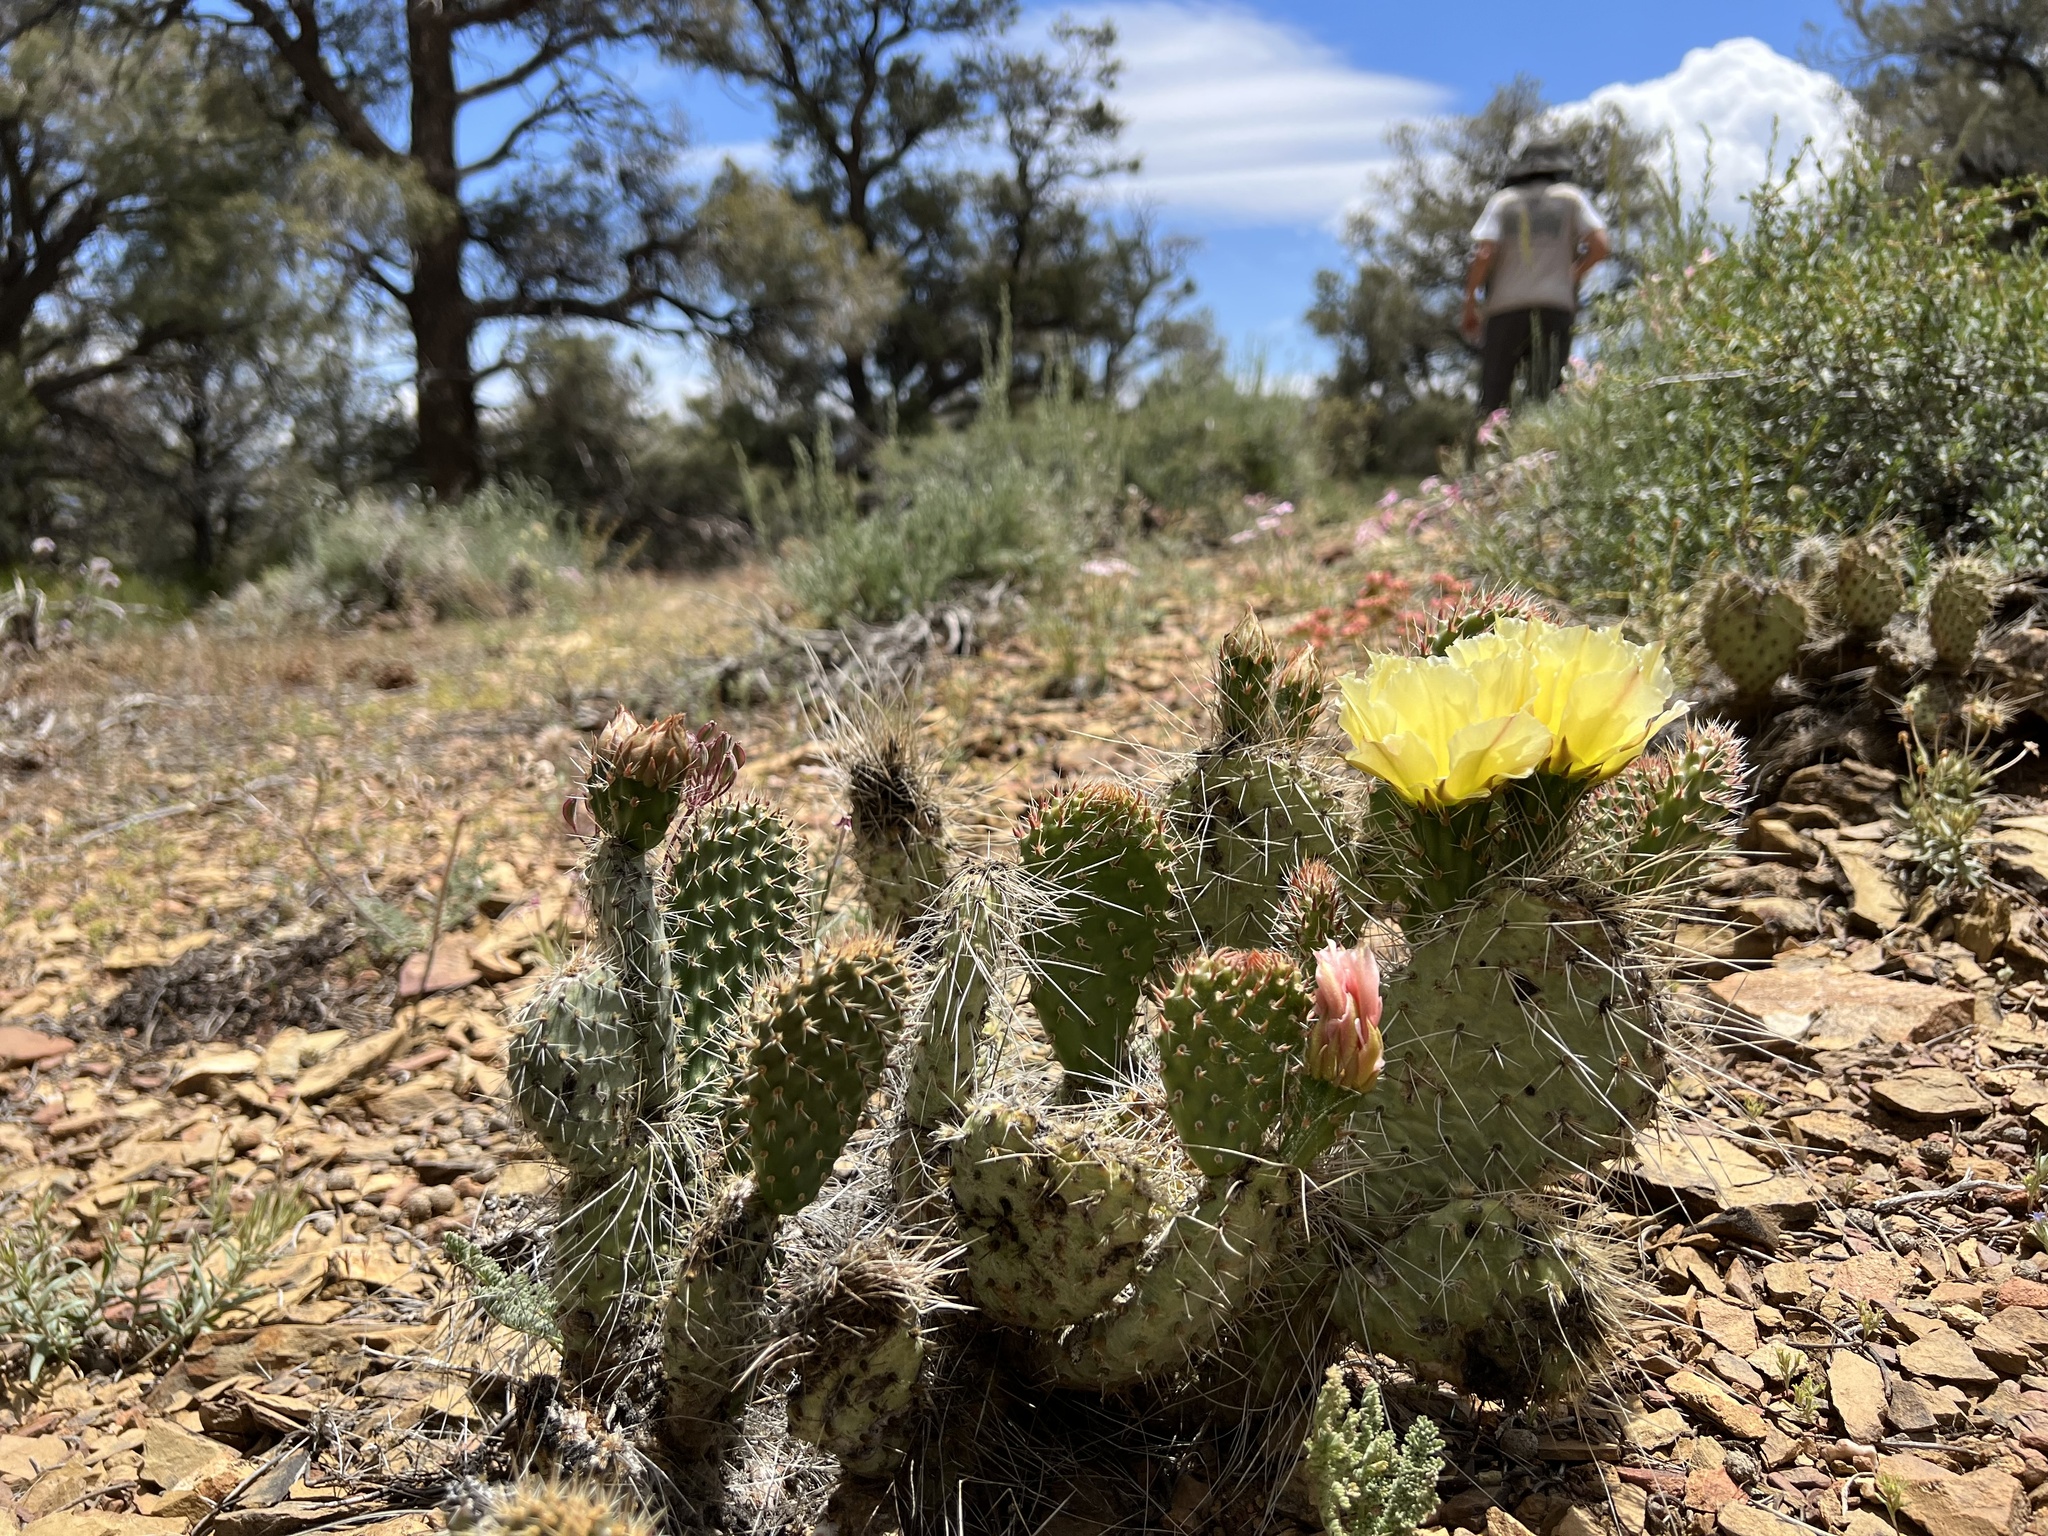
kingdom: Plantae
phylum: Tracheophyta
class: Magnoliopsida
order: Caryophyllales
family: Cactaceae
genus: Opuntia
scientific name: Opuntia polyacantha
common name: Plains prickly-pear
